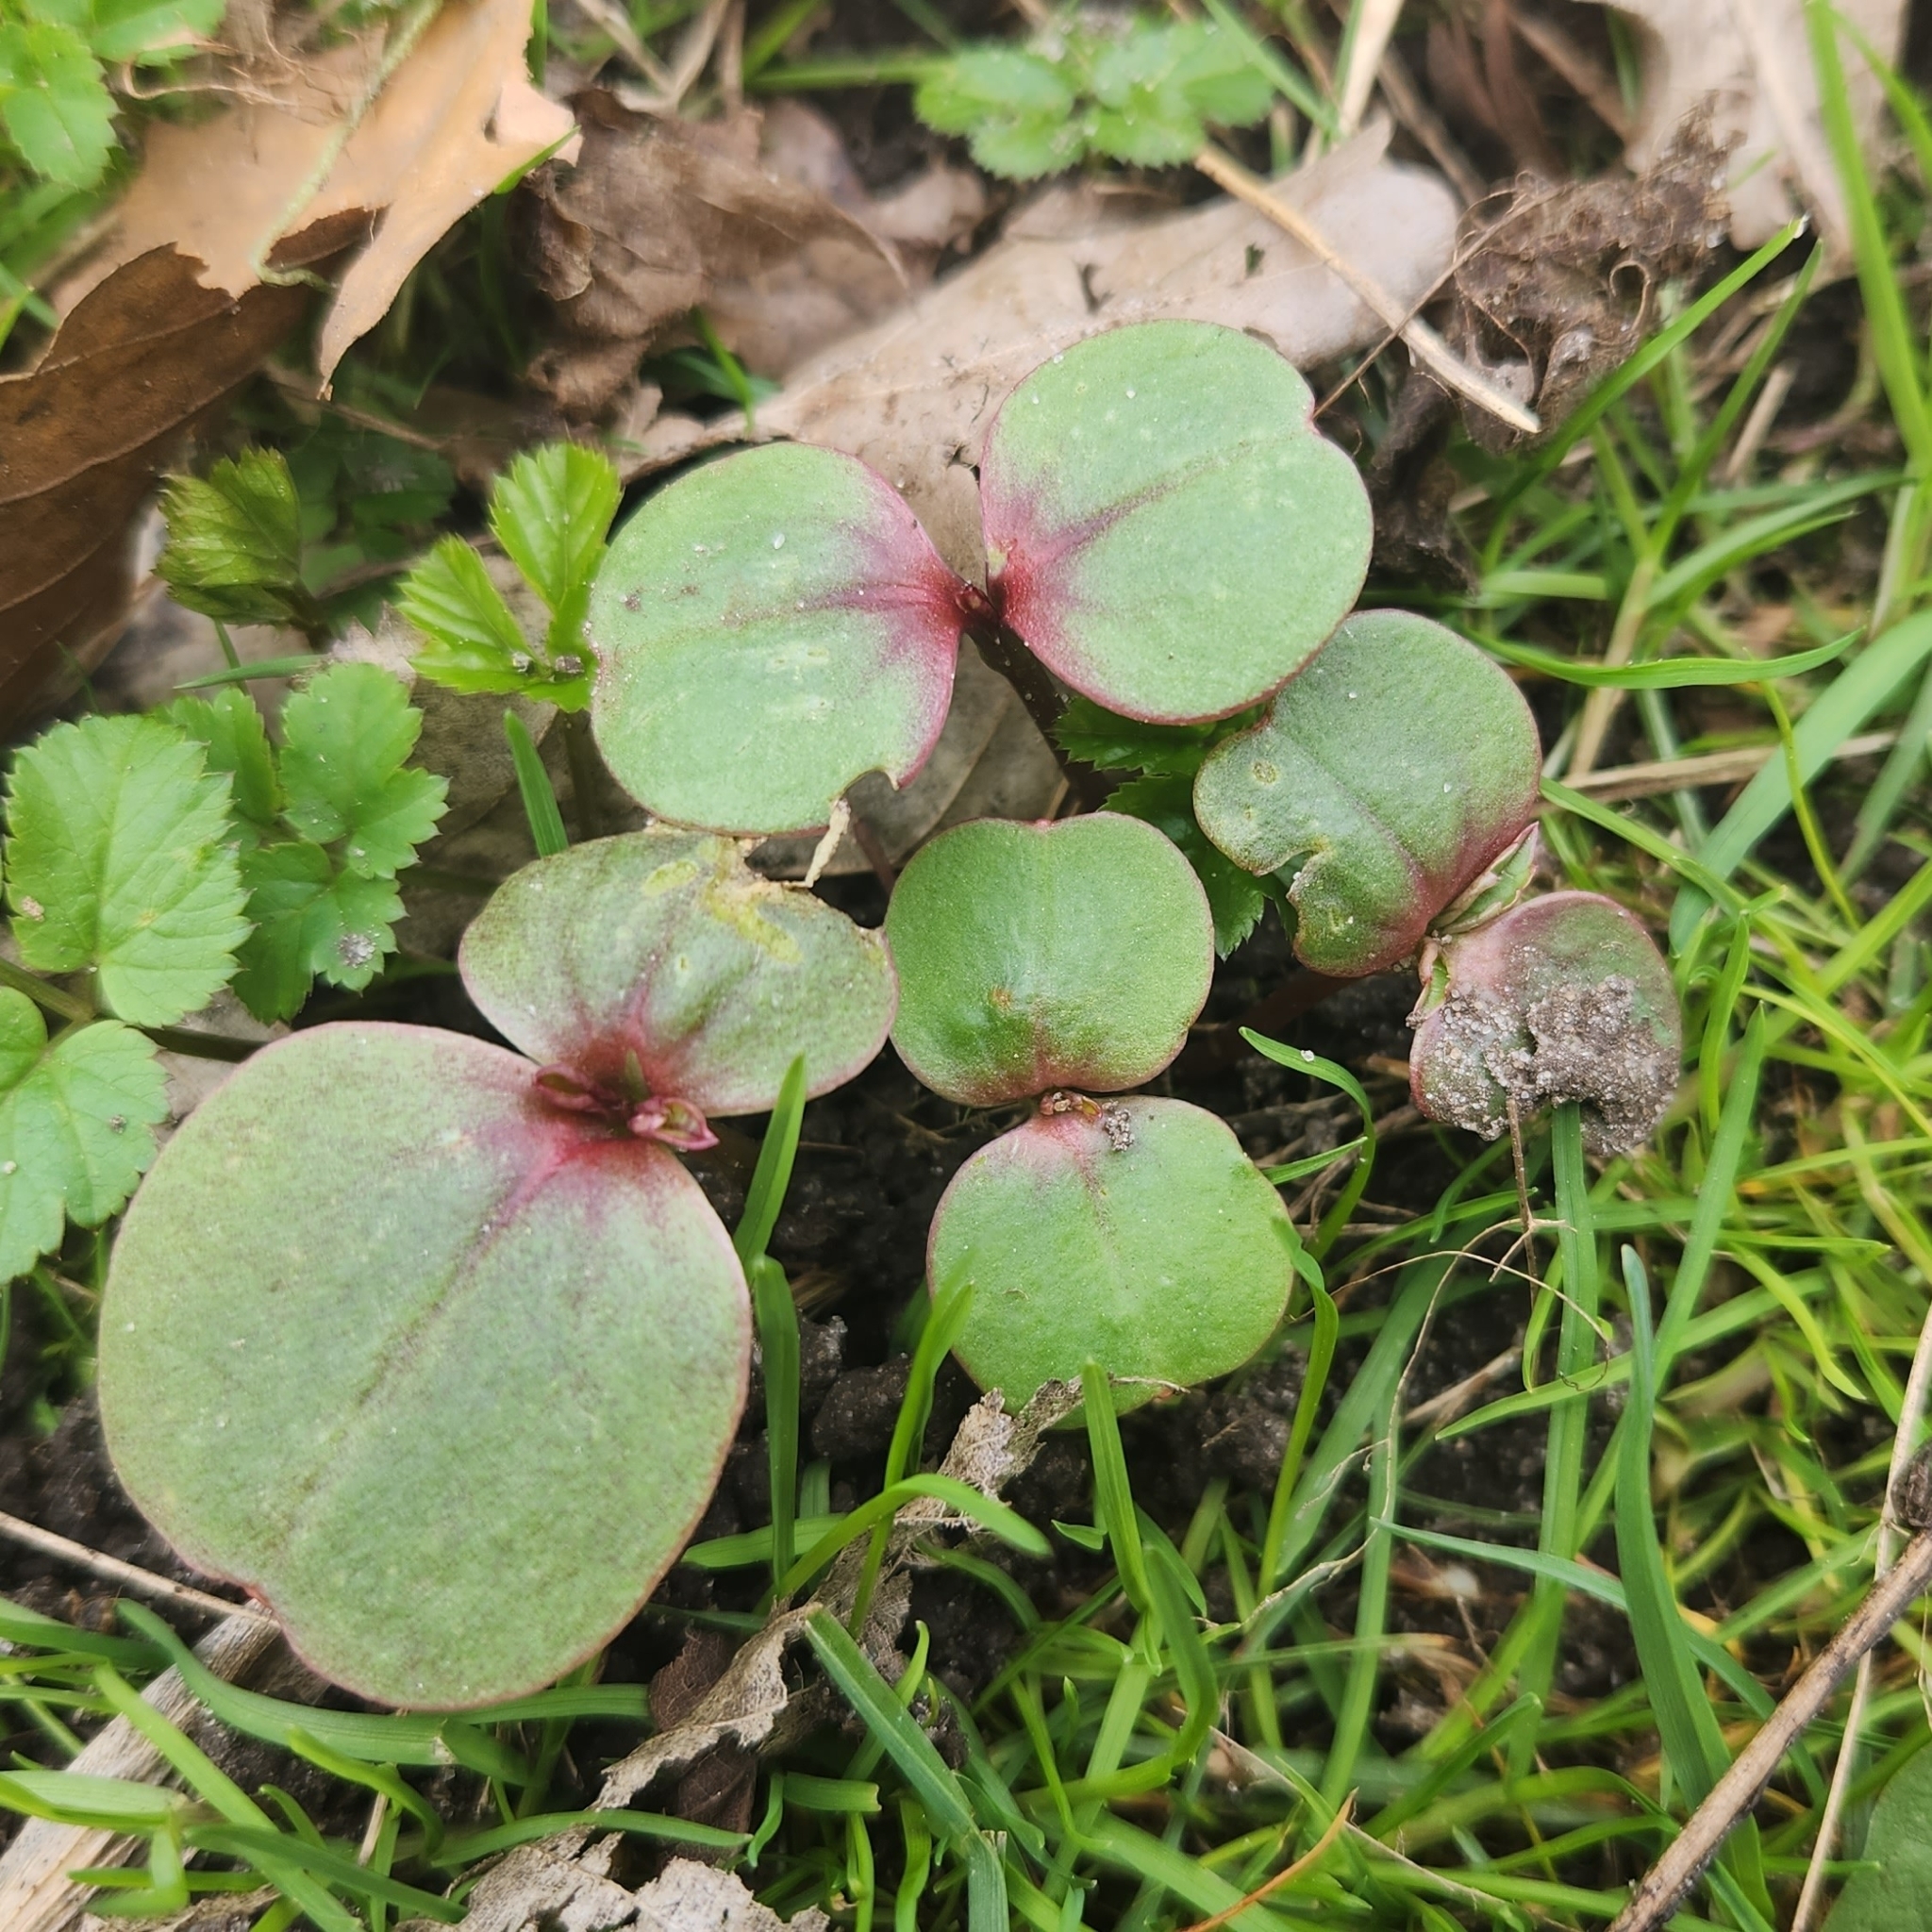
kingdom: Plantae
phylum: Tracheophyta
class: Magnoliopsida
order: Ericales
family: Balsaminaceae
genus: Impatiens
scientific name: Impatiens glandulifera
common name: Himalayan balsam
